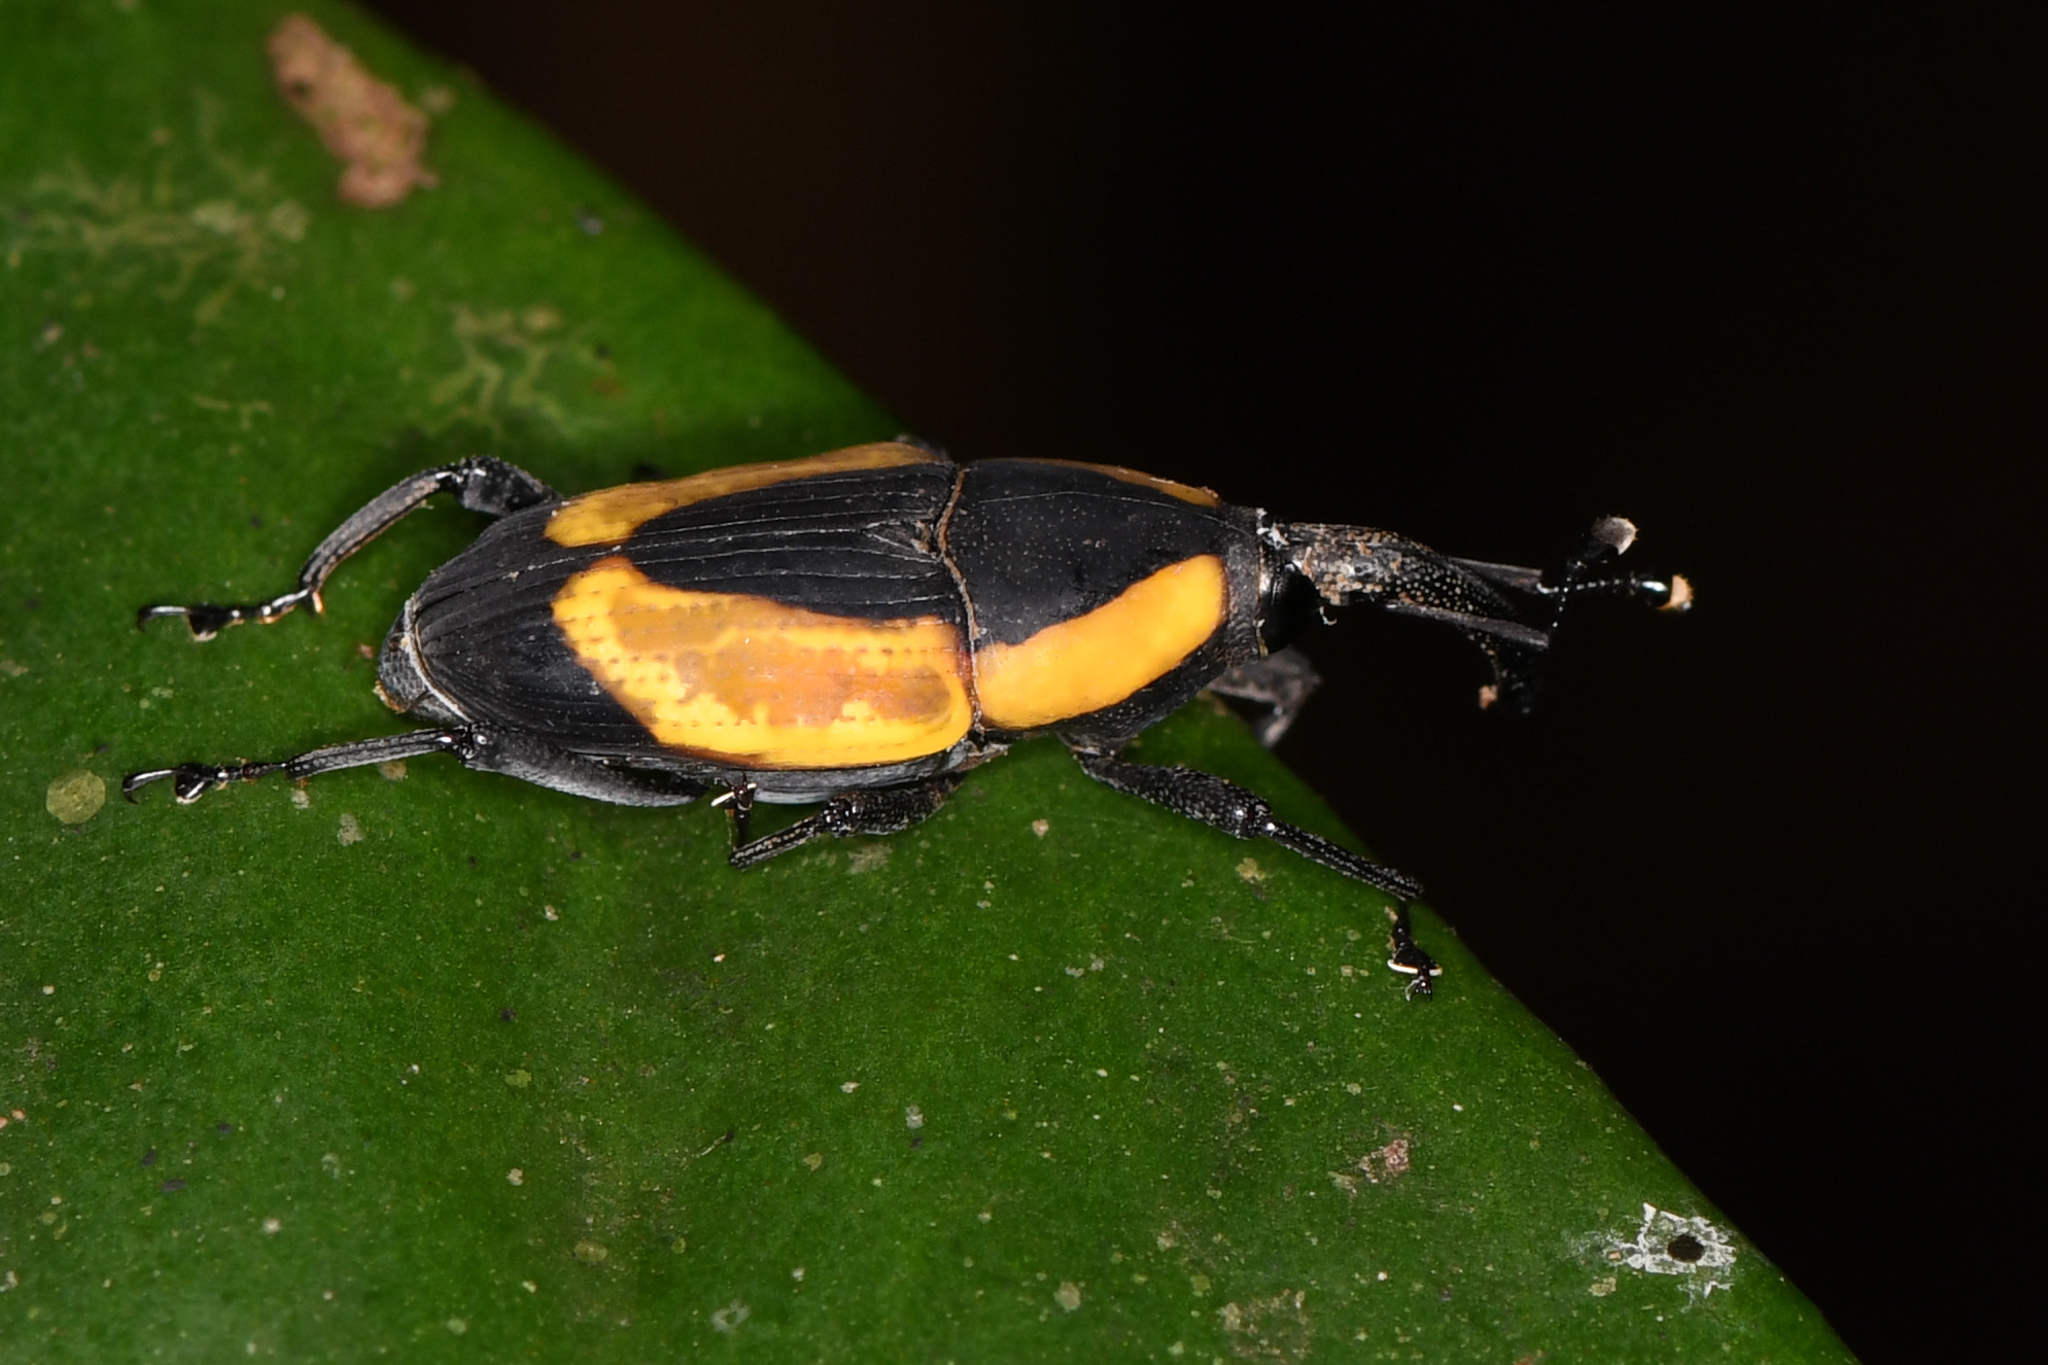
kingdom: Animalia
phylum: Arthropoda
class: Insecta
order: Coleoptera
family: Dryophthoridae
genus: Cactophagus
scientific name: Cactophagus circumdatus
